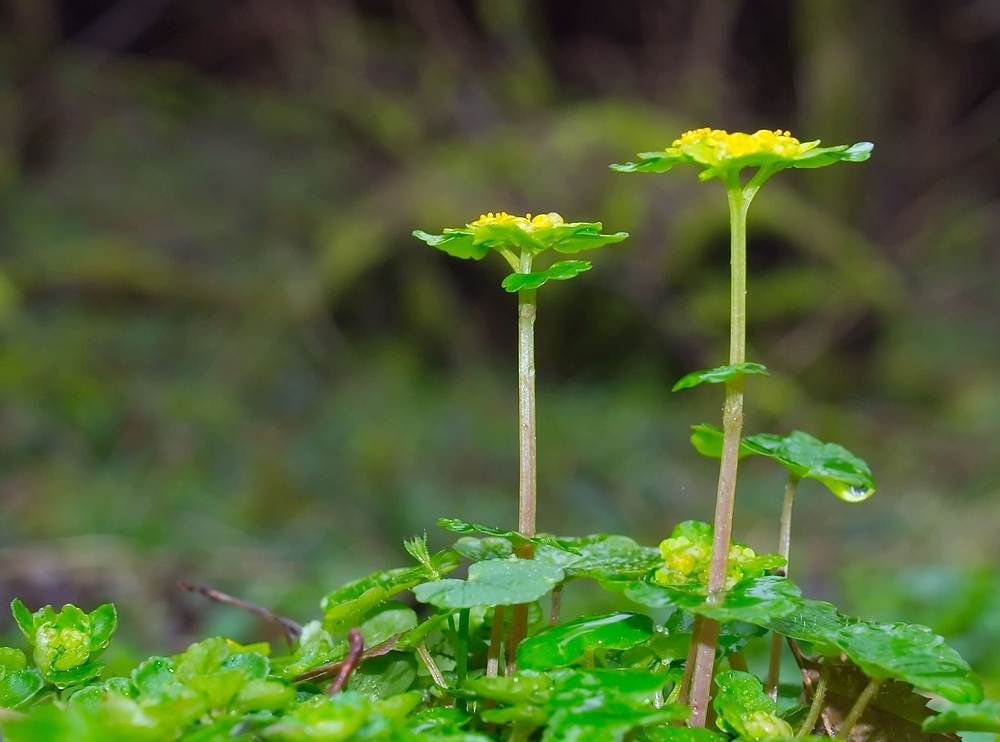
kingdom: Plantae
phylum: Tracheophyta
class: Magnoliopsida
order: Saxifragales
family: Saxifragaceae
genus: Chrysosplenium
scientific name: Chrysosplenium alternifolium
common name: Alternate-leaved golden-saxifrage
